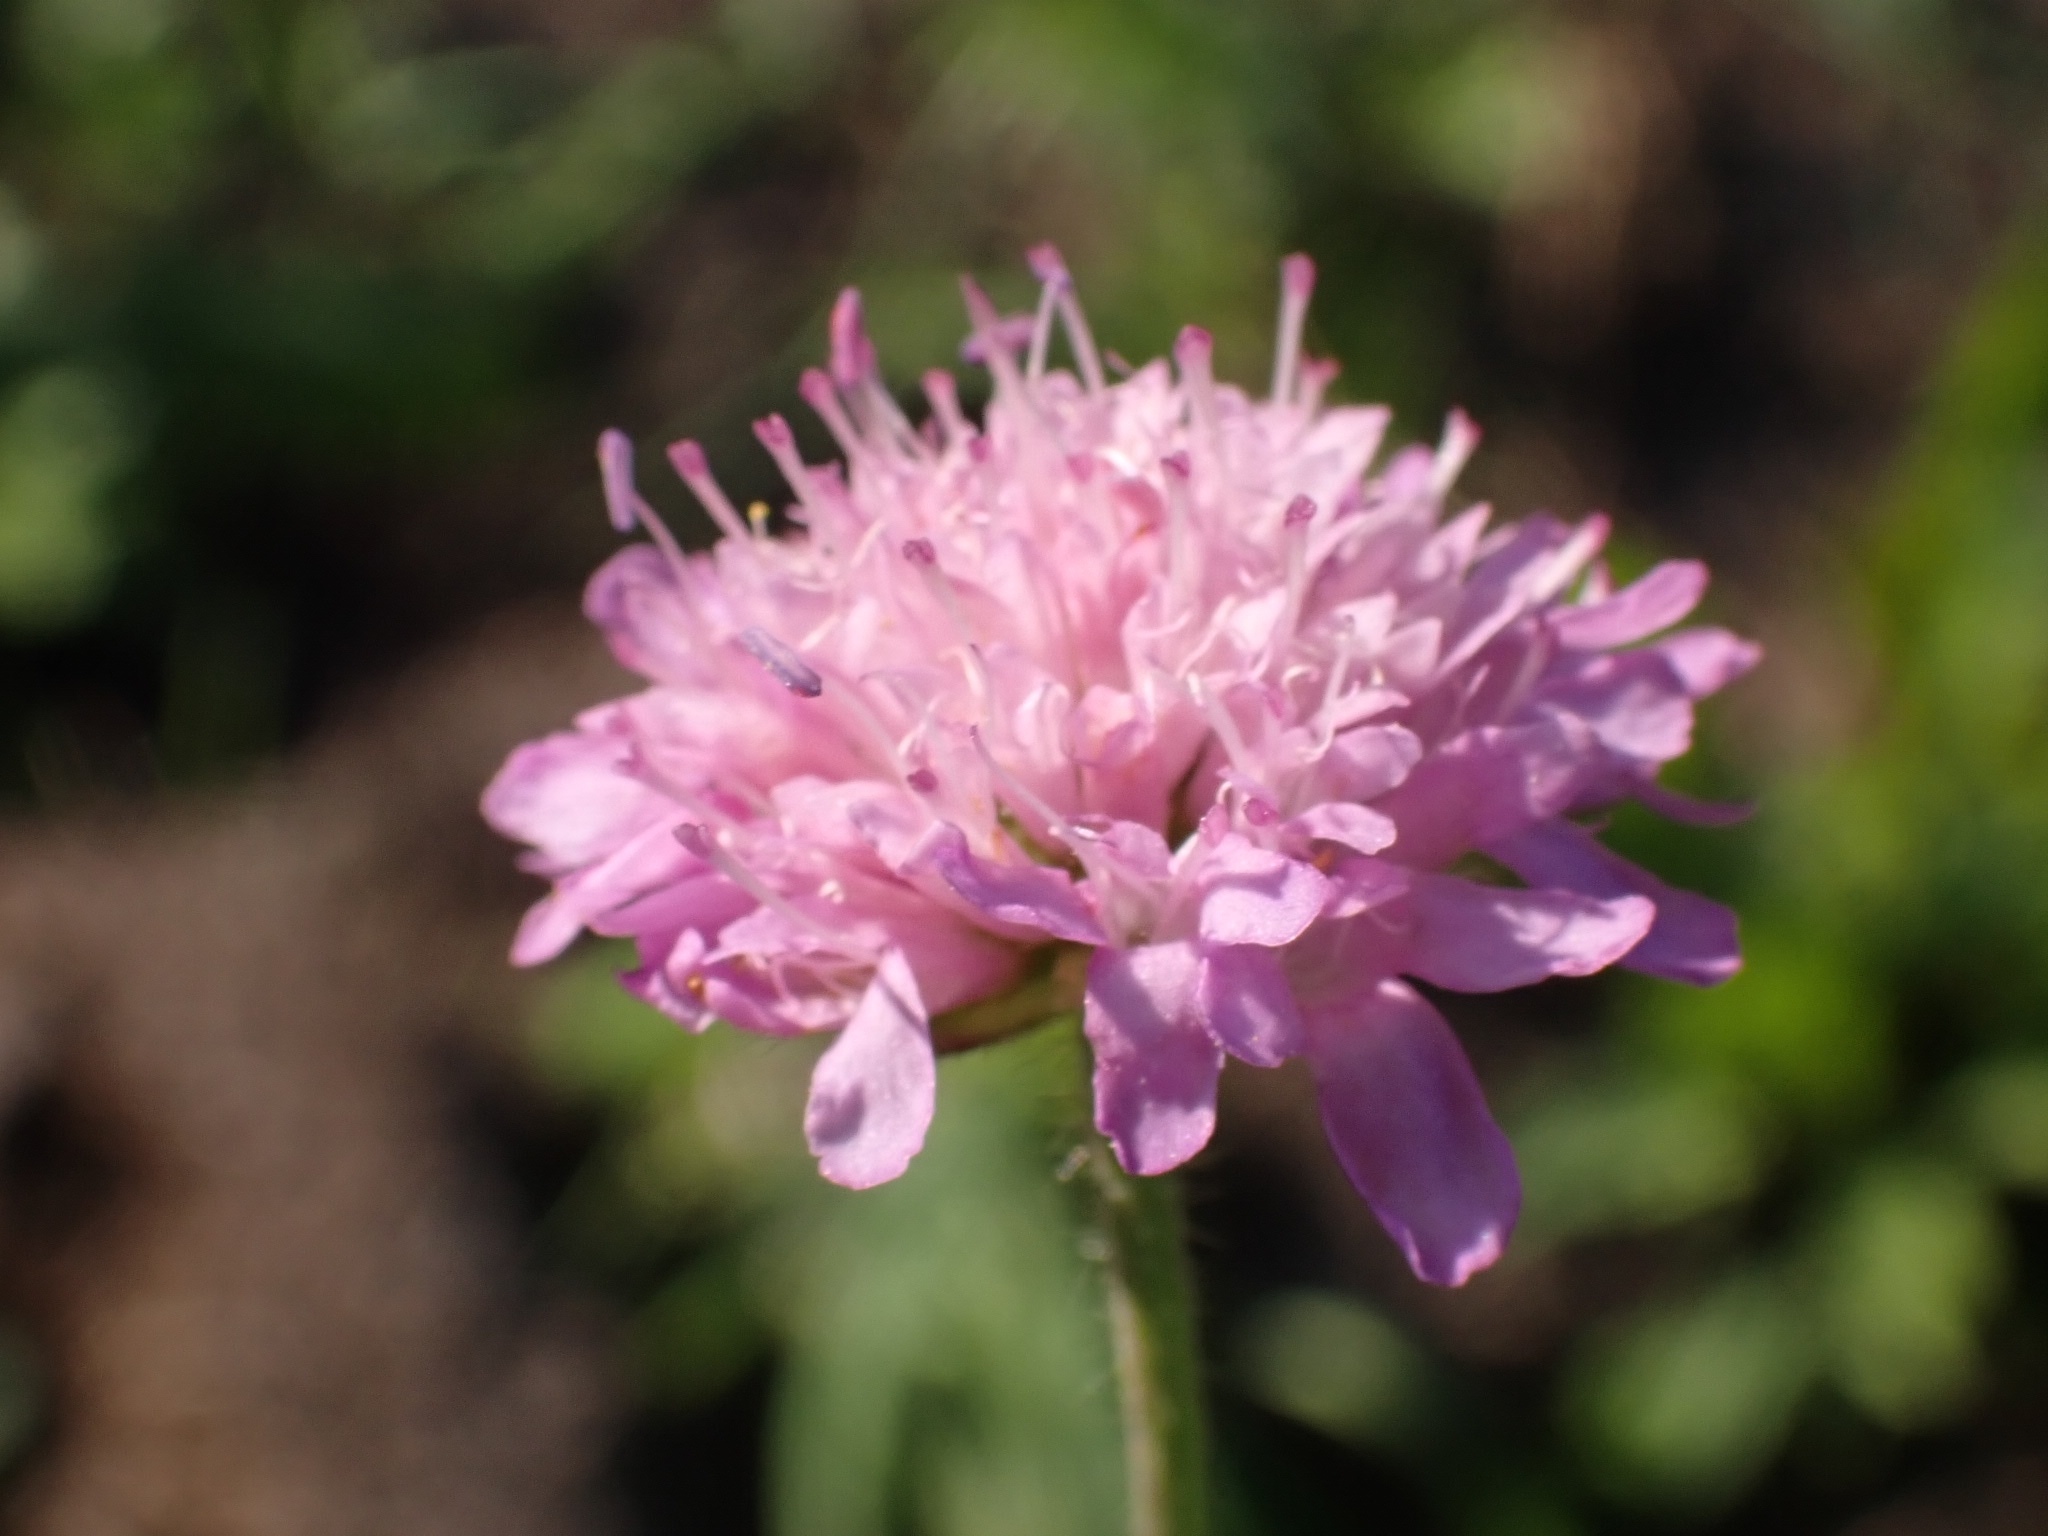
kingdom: Plantae
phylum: Tracheophyta
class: Magnoliopsida
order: Dipsacales
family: Caprifoliaceae
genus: Knautia
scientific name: Knautia arvensis
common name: Field scabiosa
